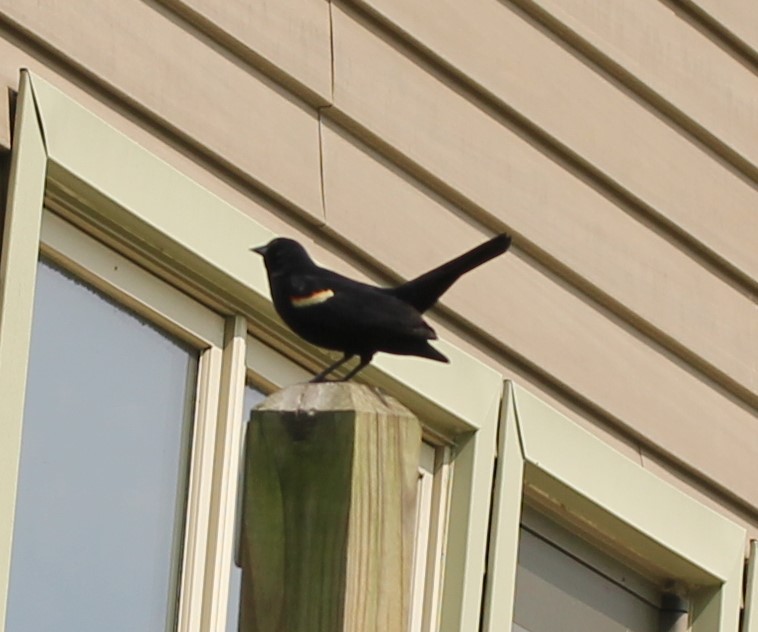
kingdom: Animalia
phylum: Chordata
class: Aves
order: Passeriformes
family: Icteridae
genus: Agelaius
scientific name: Agelaius phoeniceus
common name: Red-winged blackbird
